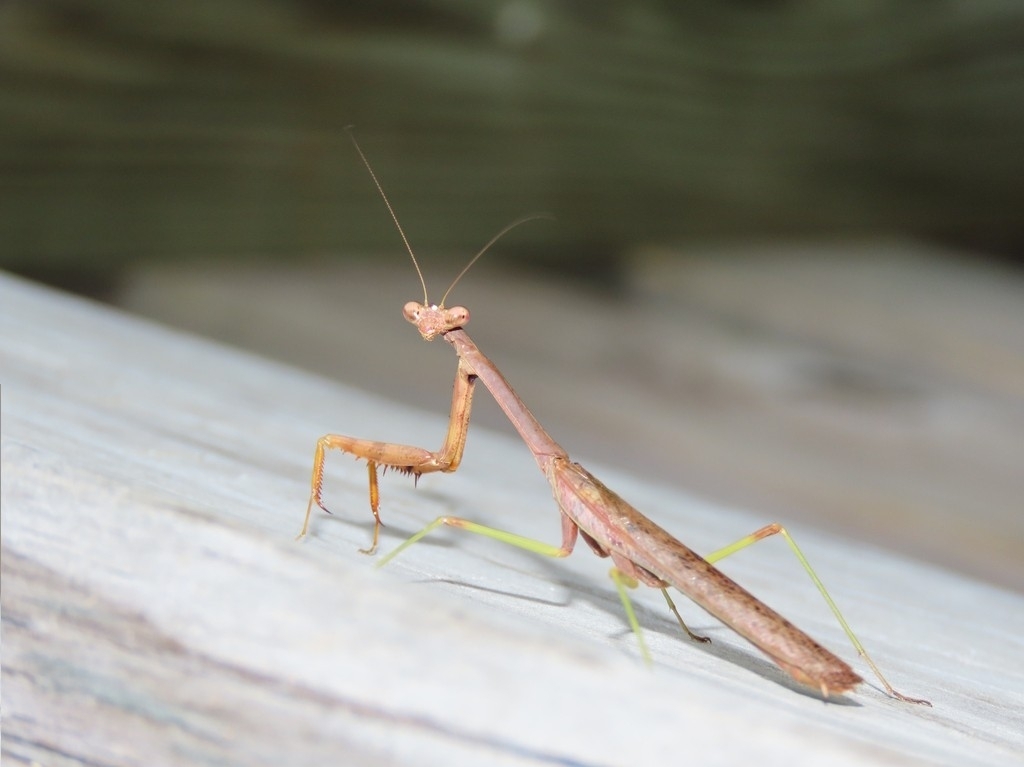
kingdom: Animalia
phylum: Arthropoda
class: Insecta
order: Mantodea
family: Mantidae
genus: Stagmomantis
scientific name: Stagmomantis carolina
